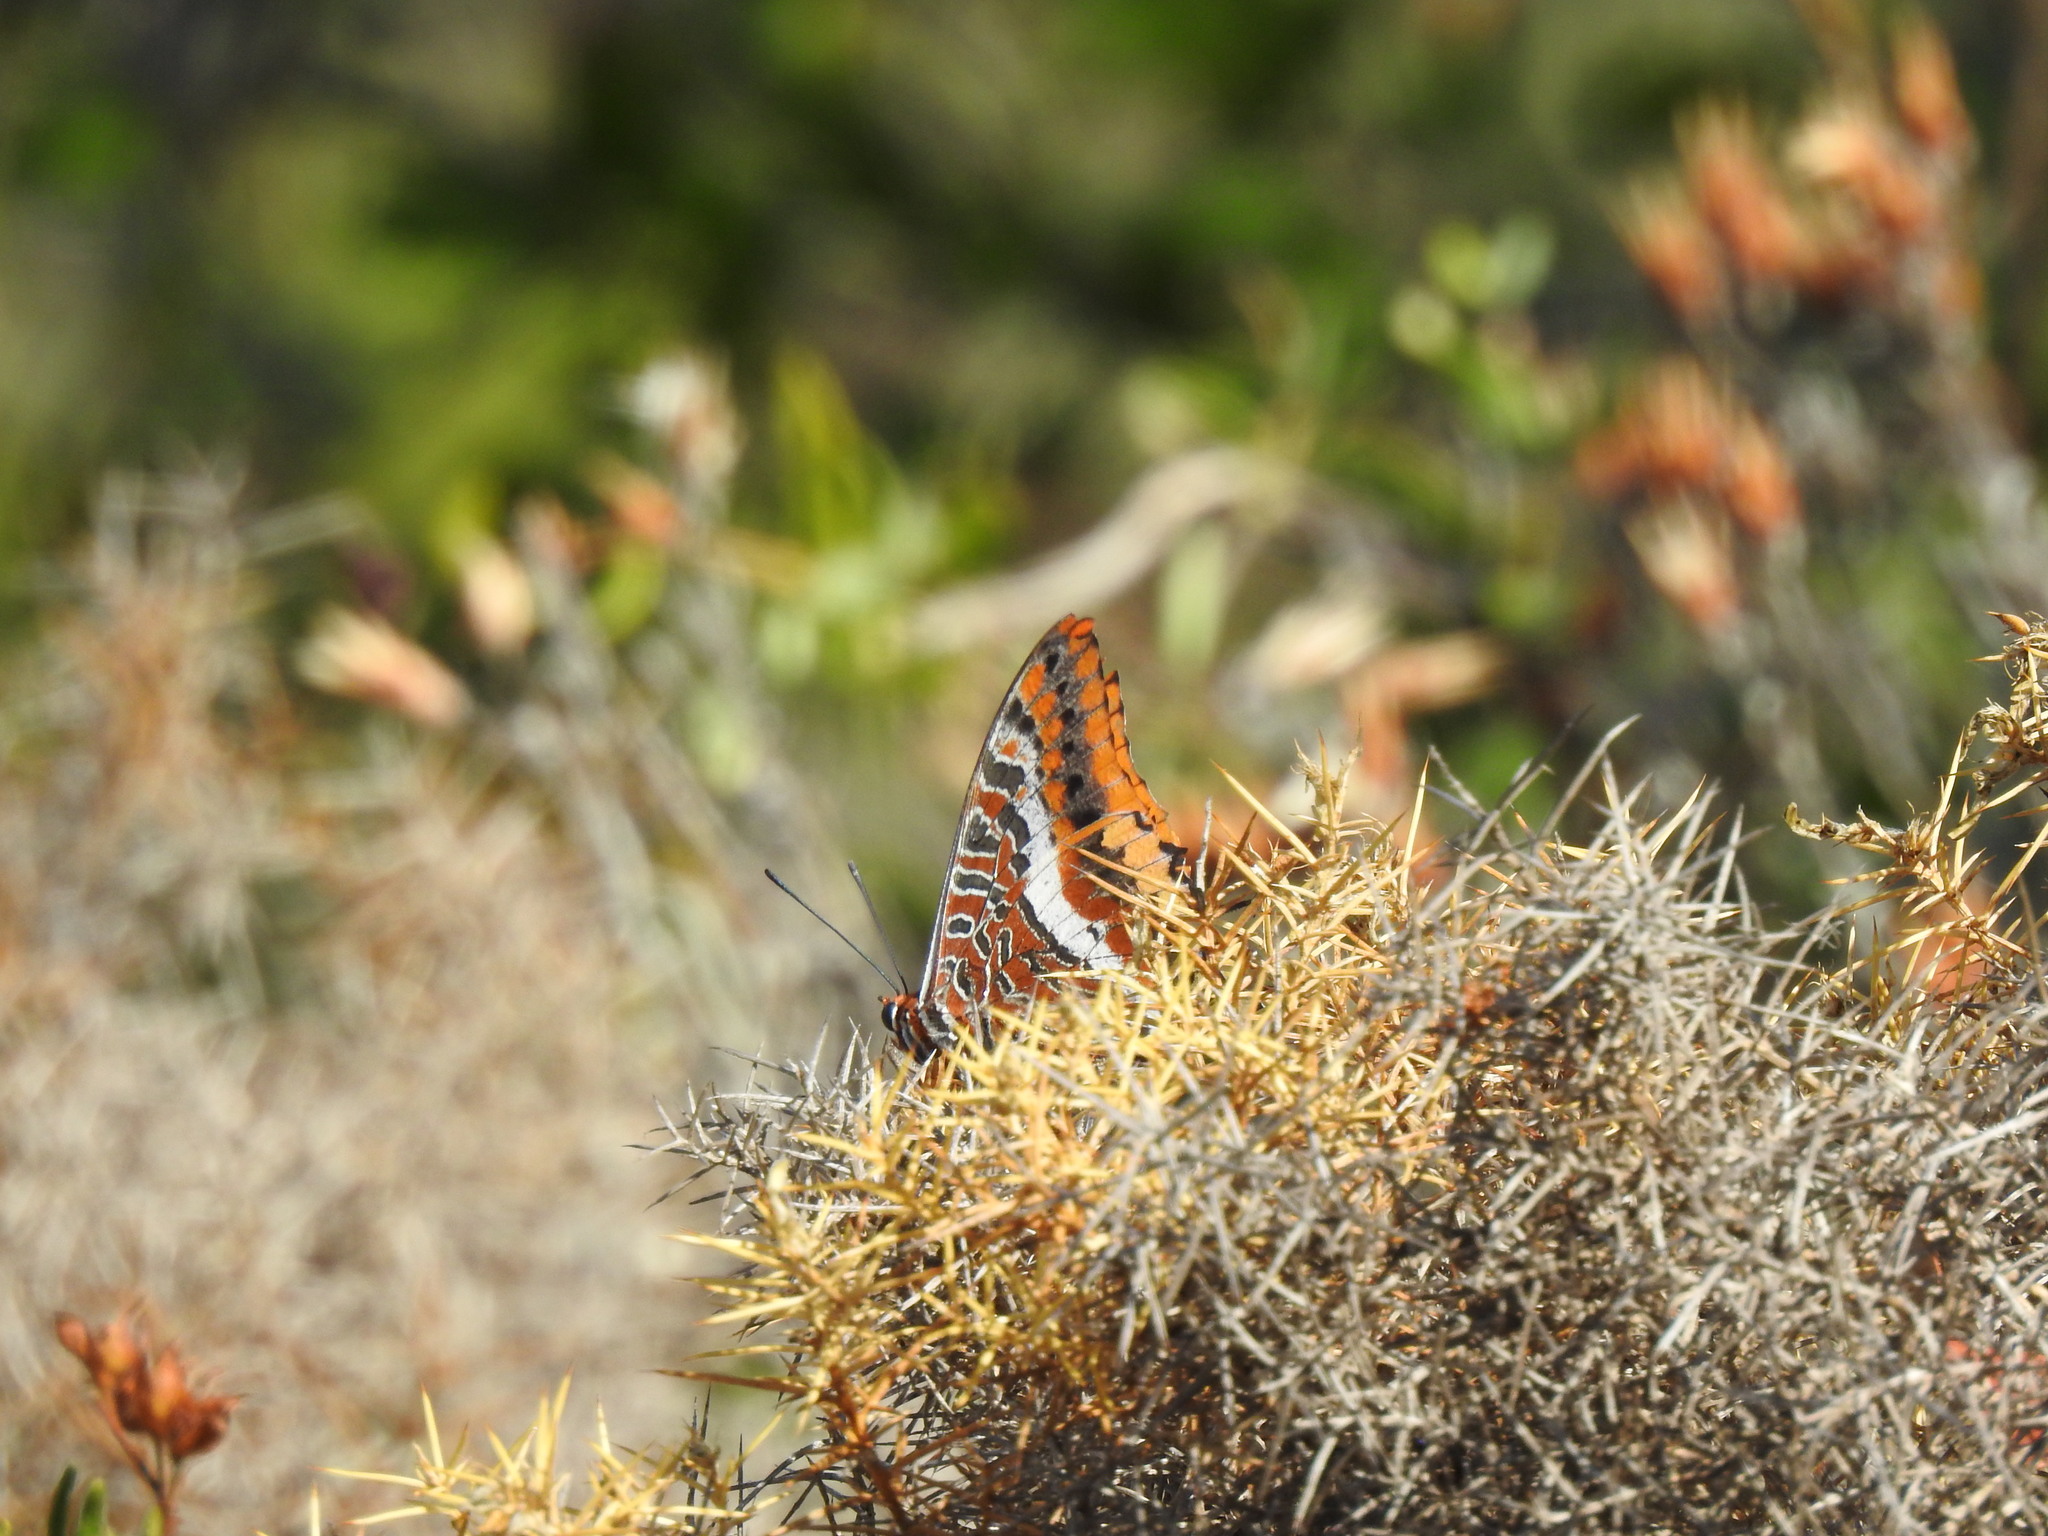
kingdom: Animalia
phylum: Arthropoda
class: Insecta
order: Lepidoptera
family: Nymphalidae
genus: Charaxes
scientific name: Charaxes jasius
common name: Two tailed pasha
